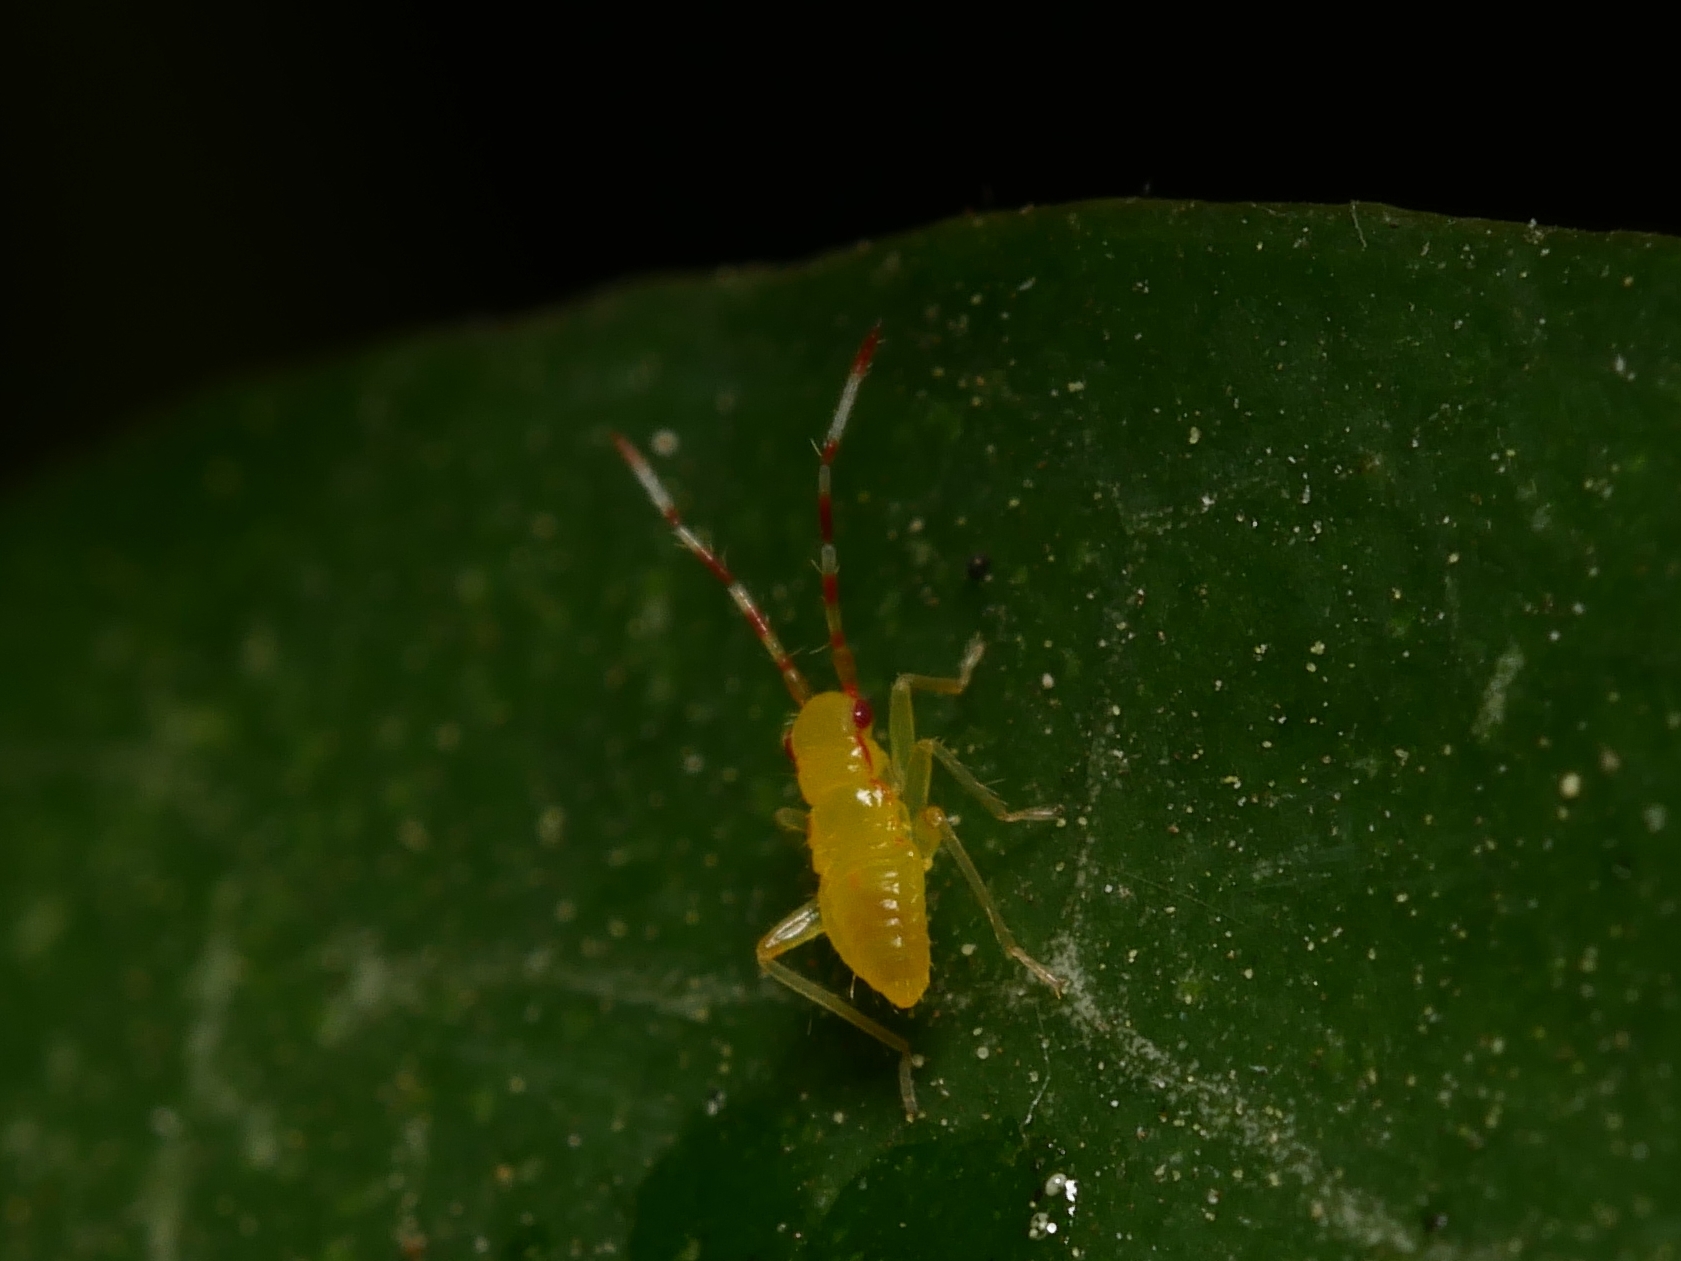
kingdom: Animalia
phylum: Arthropoda
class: Insecta
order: Hemiptera
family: Miridae
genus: Campyloneura
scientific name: Campyloneura virgula
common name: Predatory bug
